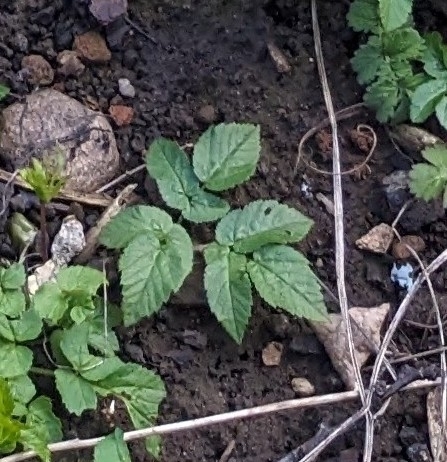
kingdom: Plantae
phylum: Tracheophyta
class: Magnoliopsida
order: Apiales
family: Apiaceae
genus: Aegopodium
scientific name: Aegopodium podagraria
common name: Ground-elder
